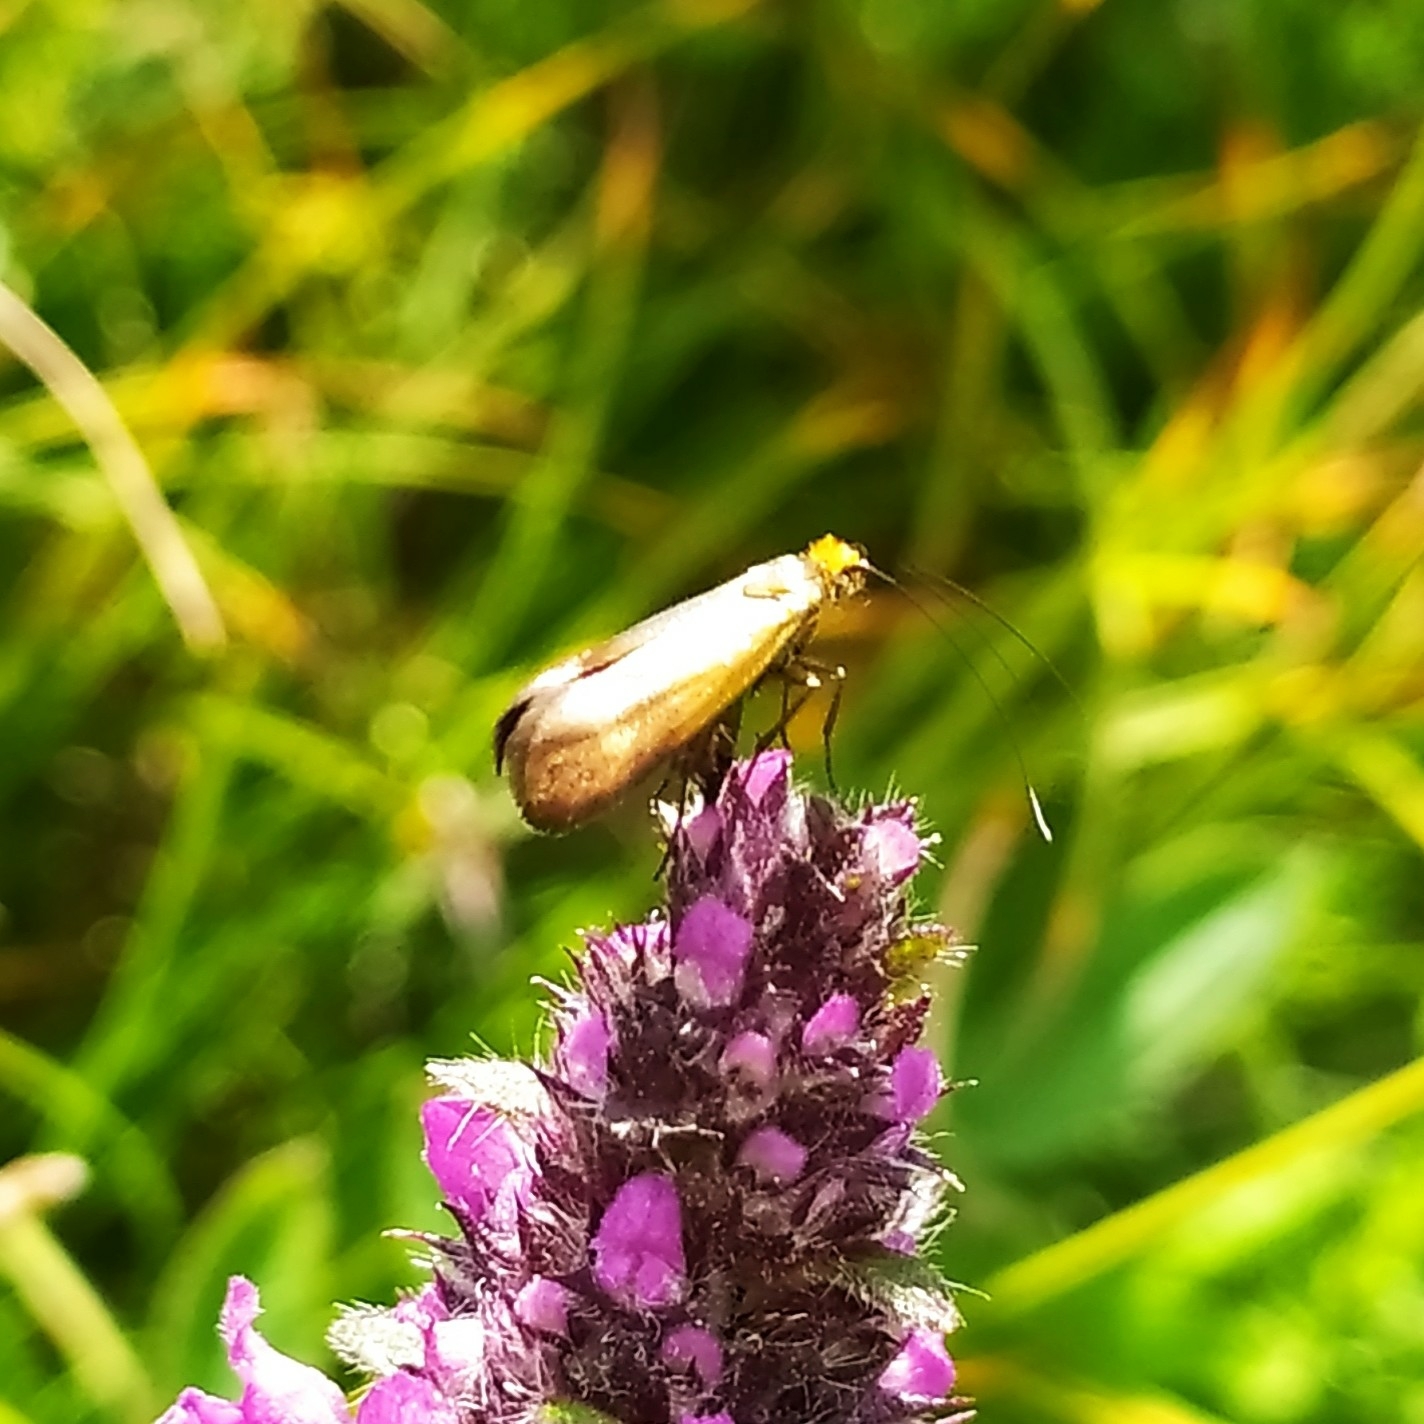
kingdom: Animalia
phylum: Arthropoda
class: Insecta
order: Lepidoptera
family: Adelidae
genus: Nemophora
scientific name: Nemophora prodigellus
